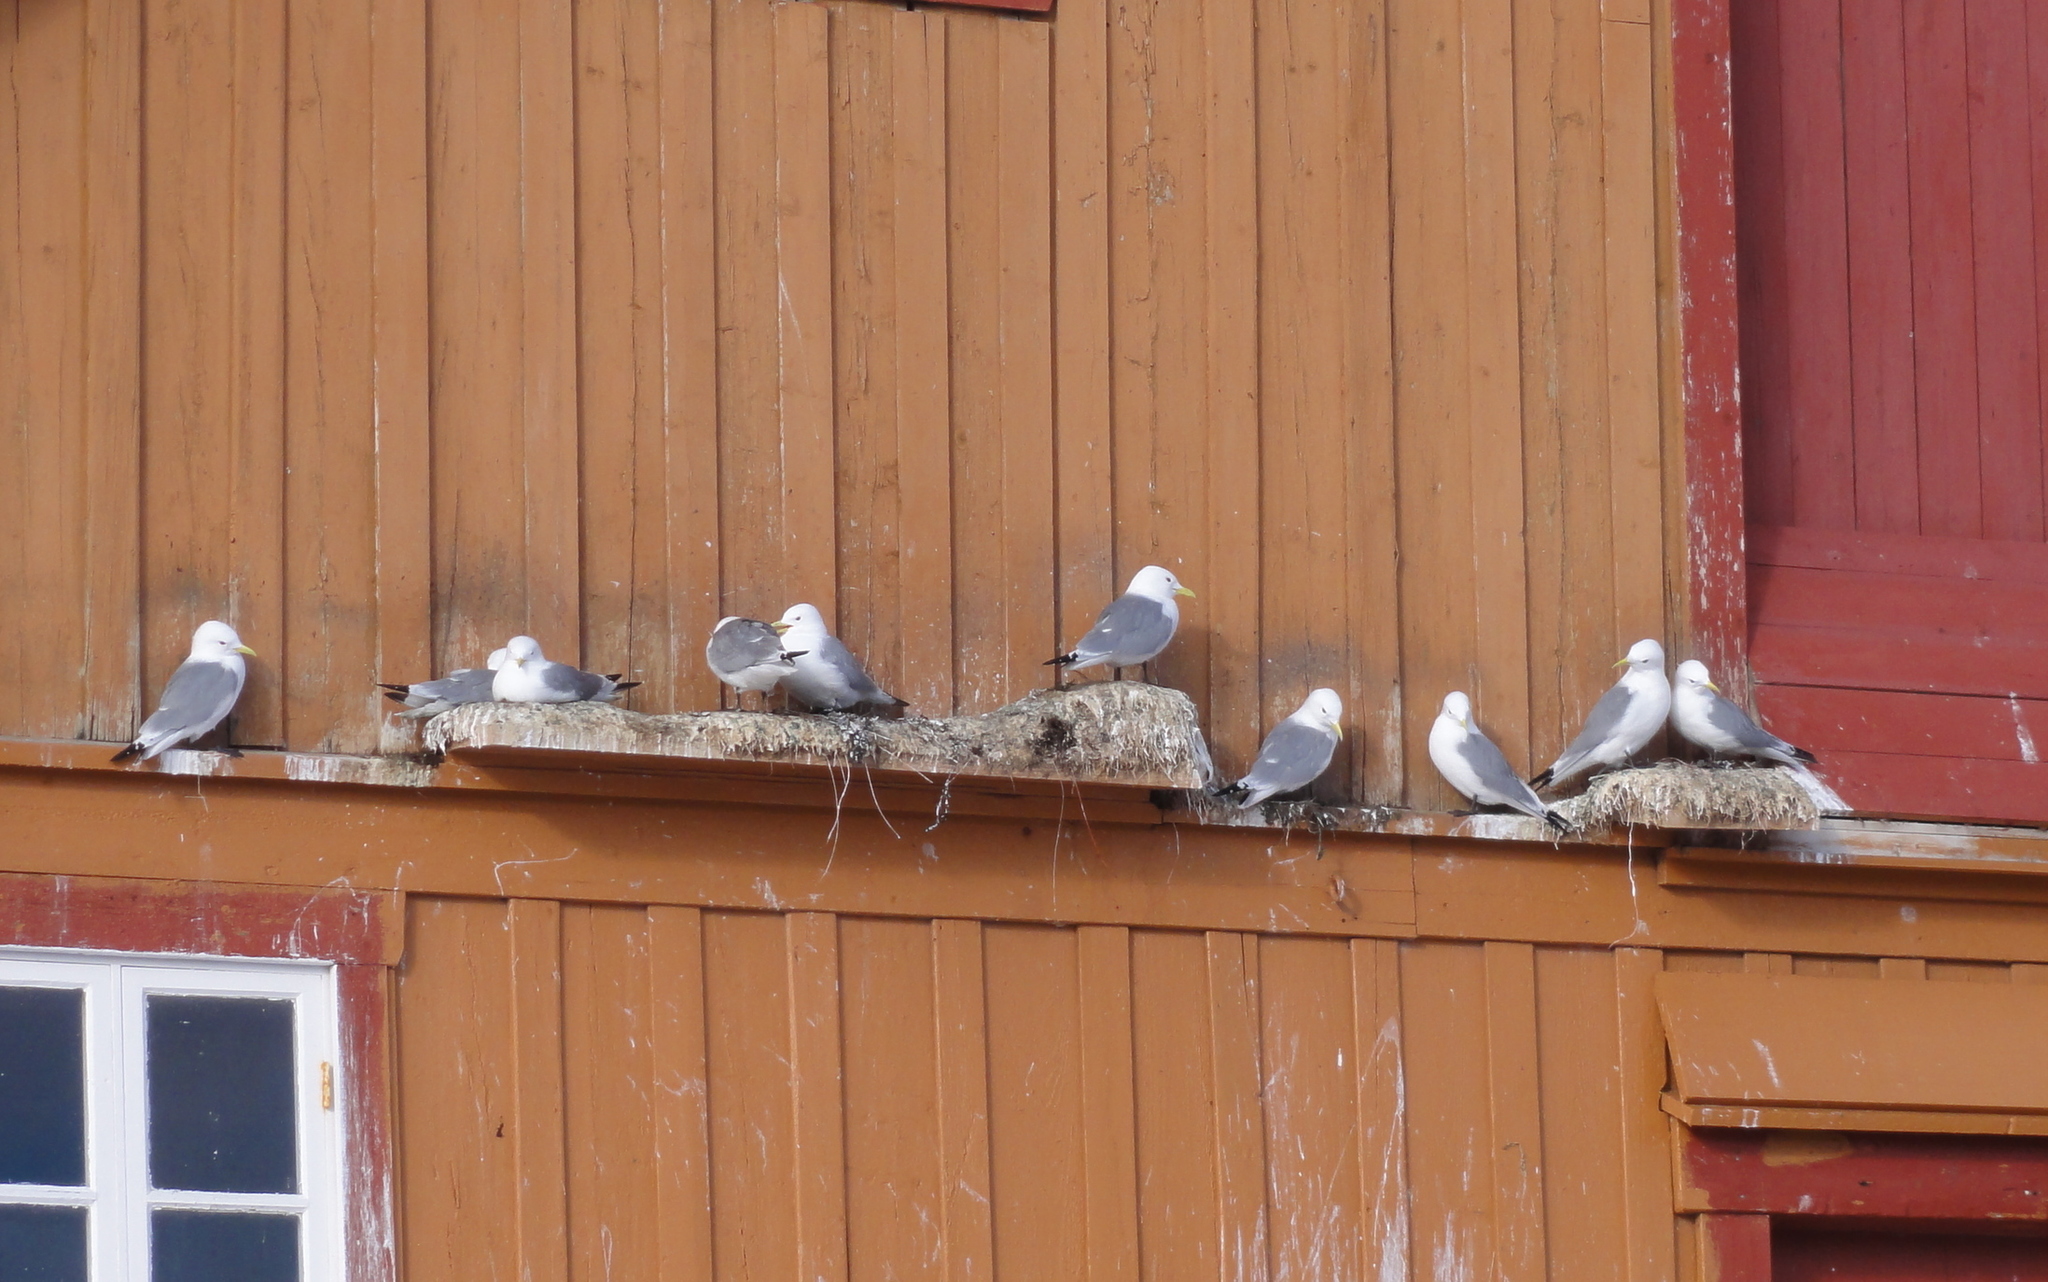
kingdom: Animalia
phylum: Chordata
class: Aves
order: Charadriiformes
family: Laridae
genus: Rissa
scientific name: Rissa tridactyla
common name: Black-legged kittiwake
